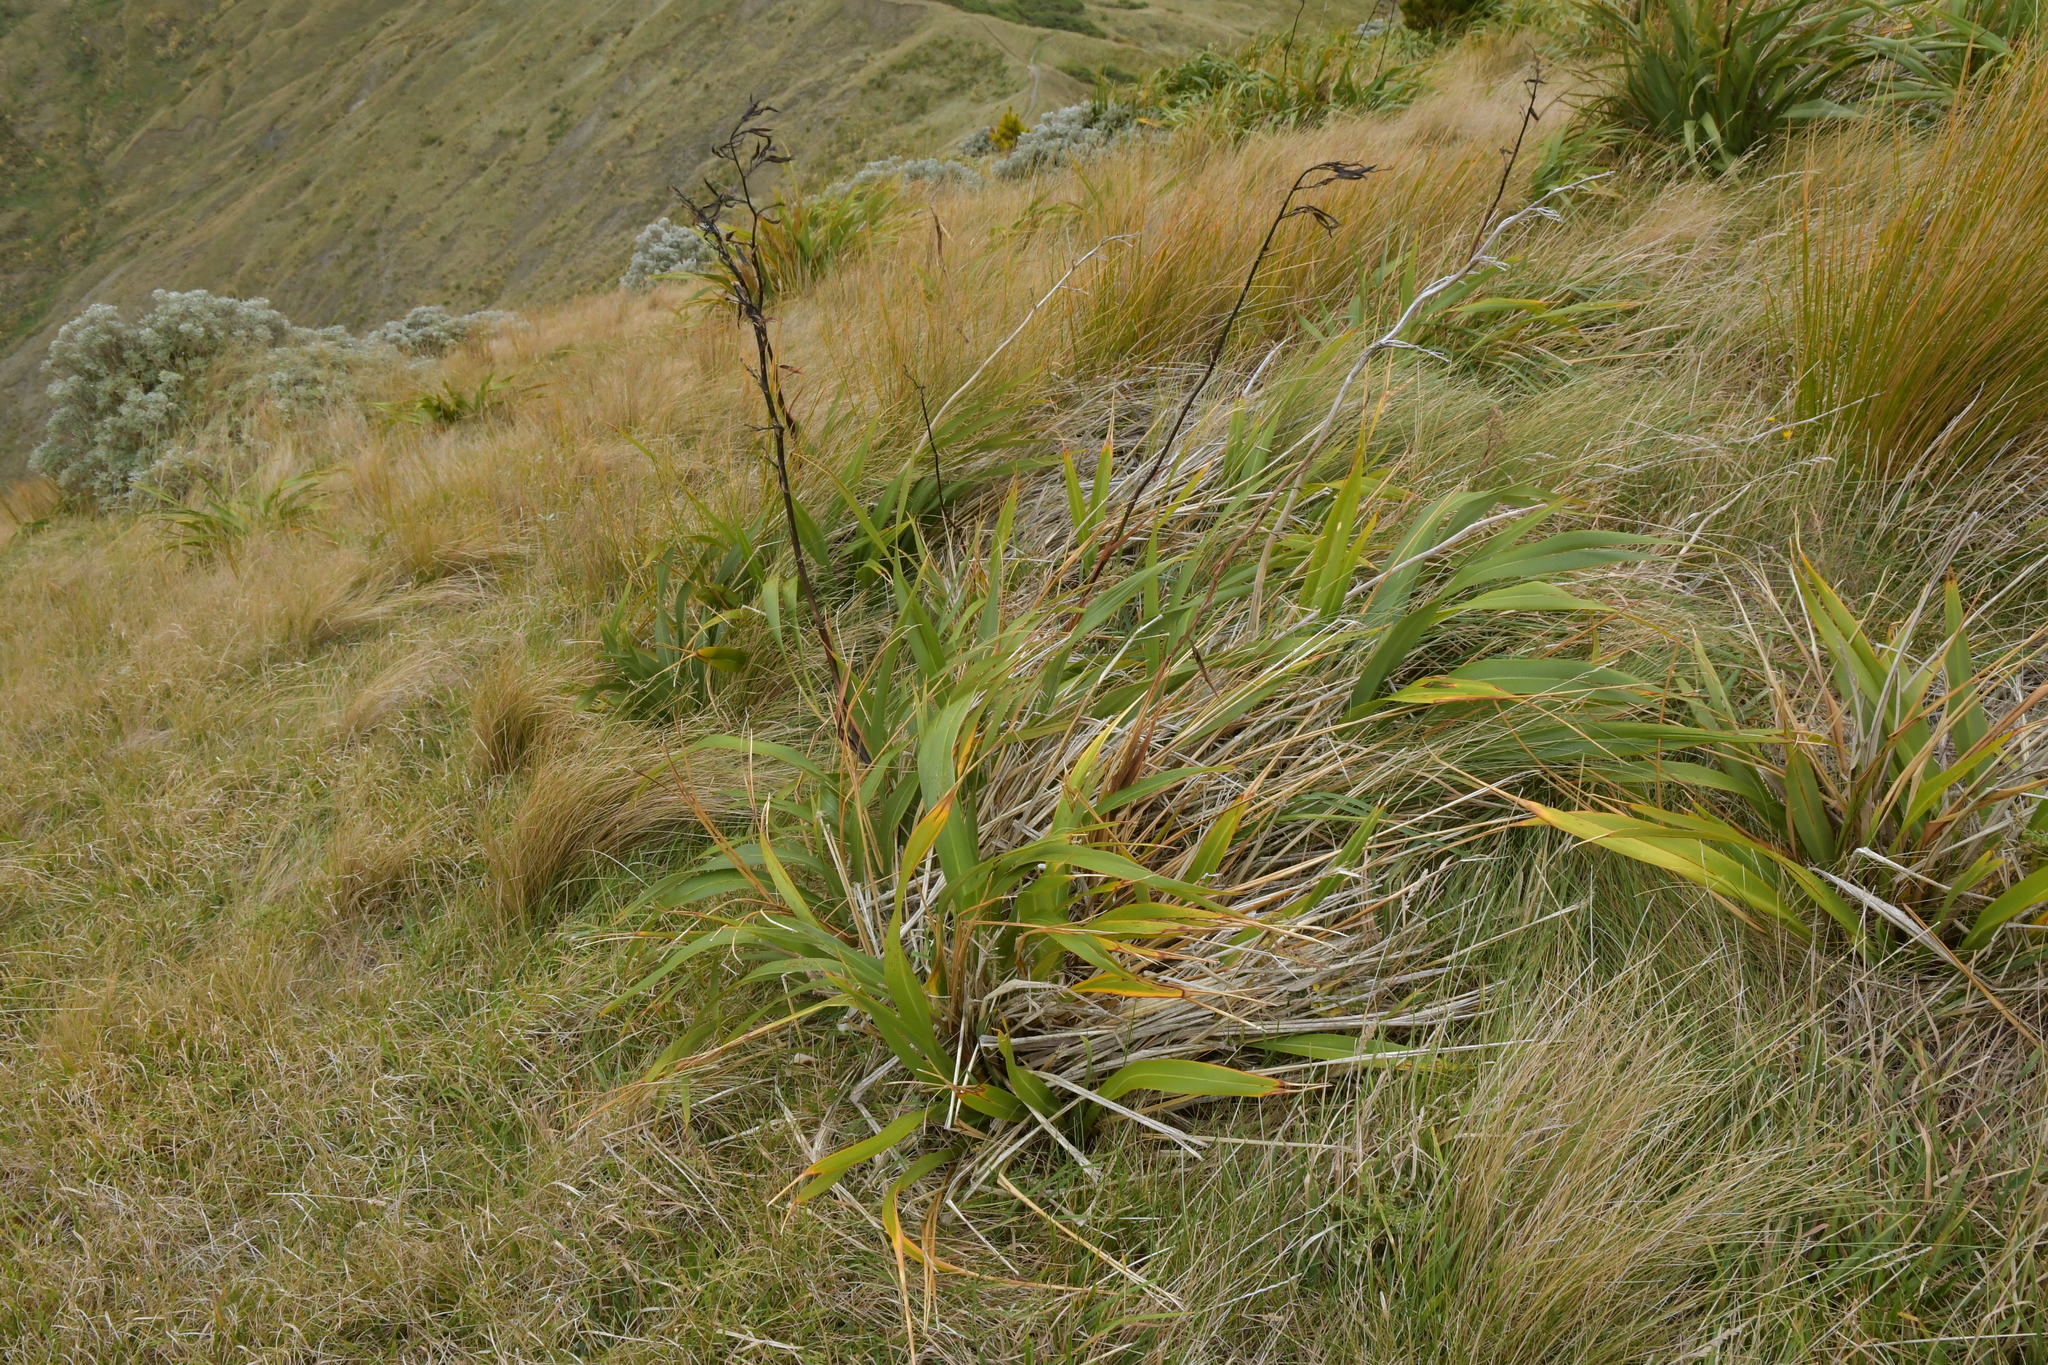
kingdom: Plantae
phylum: Tracheophyta
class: Liliopsida
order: Asparagales
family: Asphodelaceae
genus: Phormium
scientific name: Phormium colensoi
